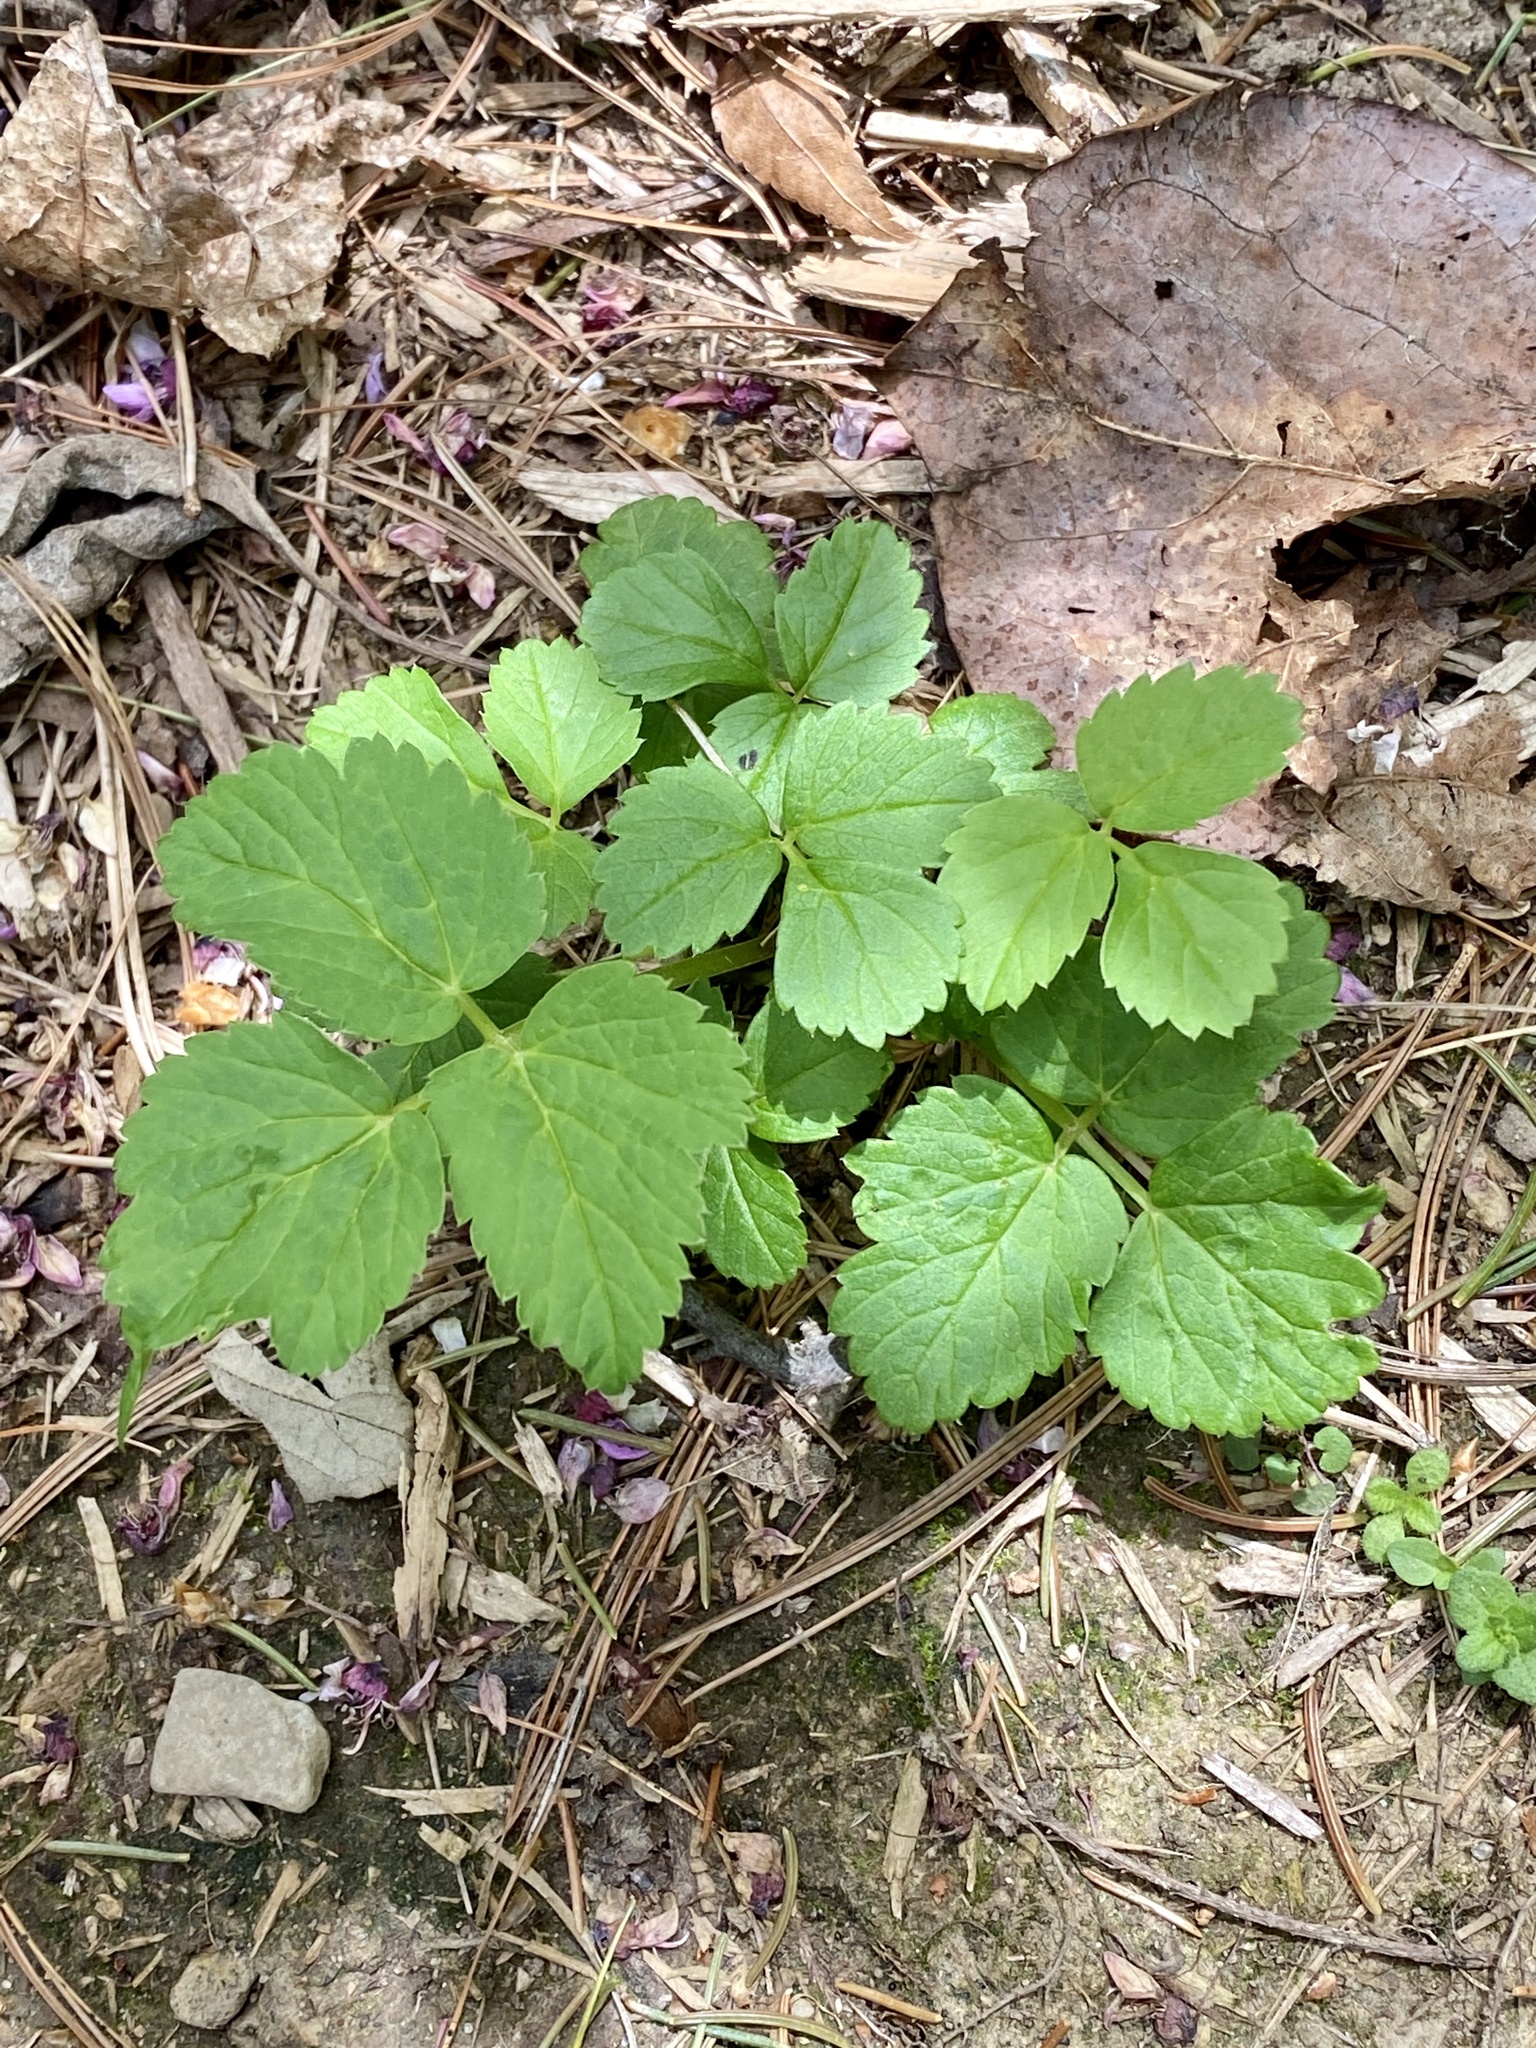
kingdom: Plantae
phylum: Tracheophyta
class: Magnoliopsida
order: Apiales
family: Apiaceae
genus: Aegopodium
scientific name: Aegopodium podagraria
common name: Ground-elder
